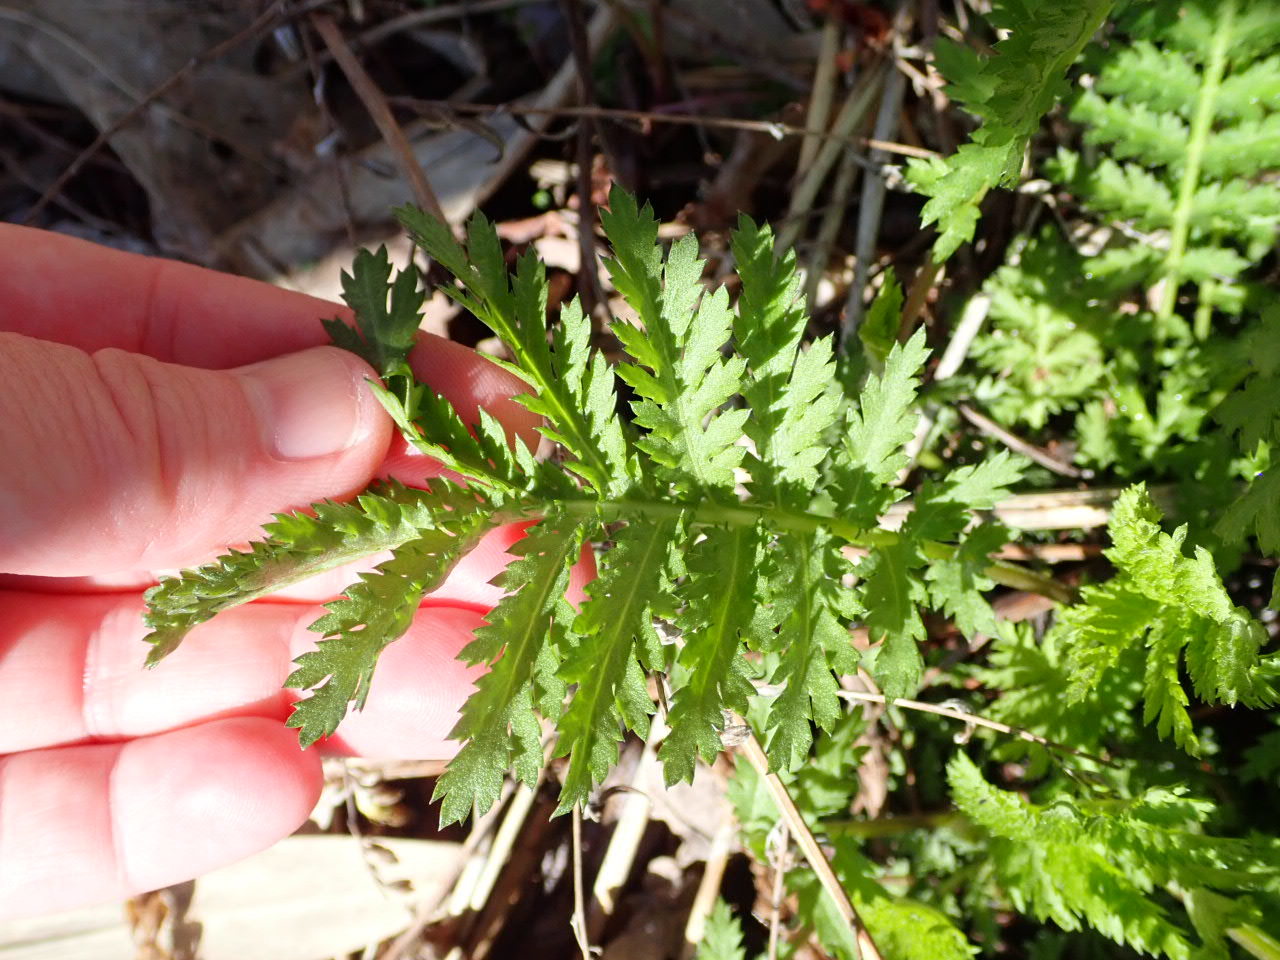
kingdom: Plantae
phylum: Tracheophyta
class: Magnoliopsida
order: Asterales
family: Asteraceae
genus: Tanacetum
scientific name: Tanacetum vulgare
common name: Common tansy
